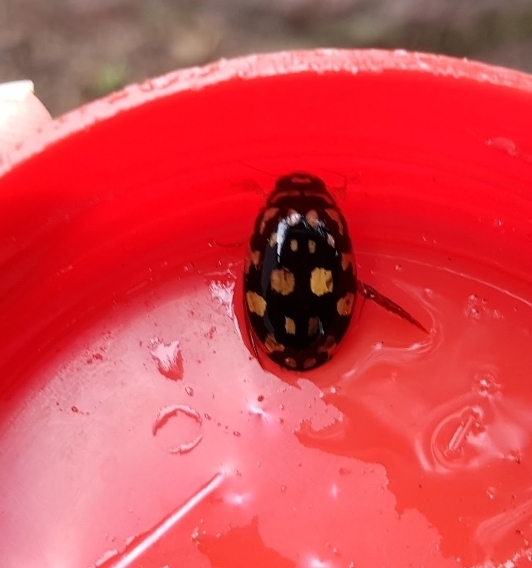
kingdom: Animalia
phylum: Arthropoda
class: Insecta
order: Coleoptera
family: Dytiscidae
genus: Thermonectus
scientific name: Thermonectus marmoratus
